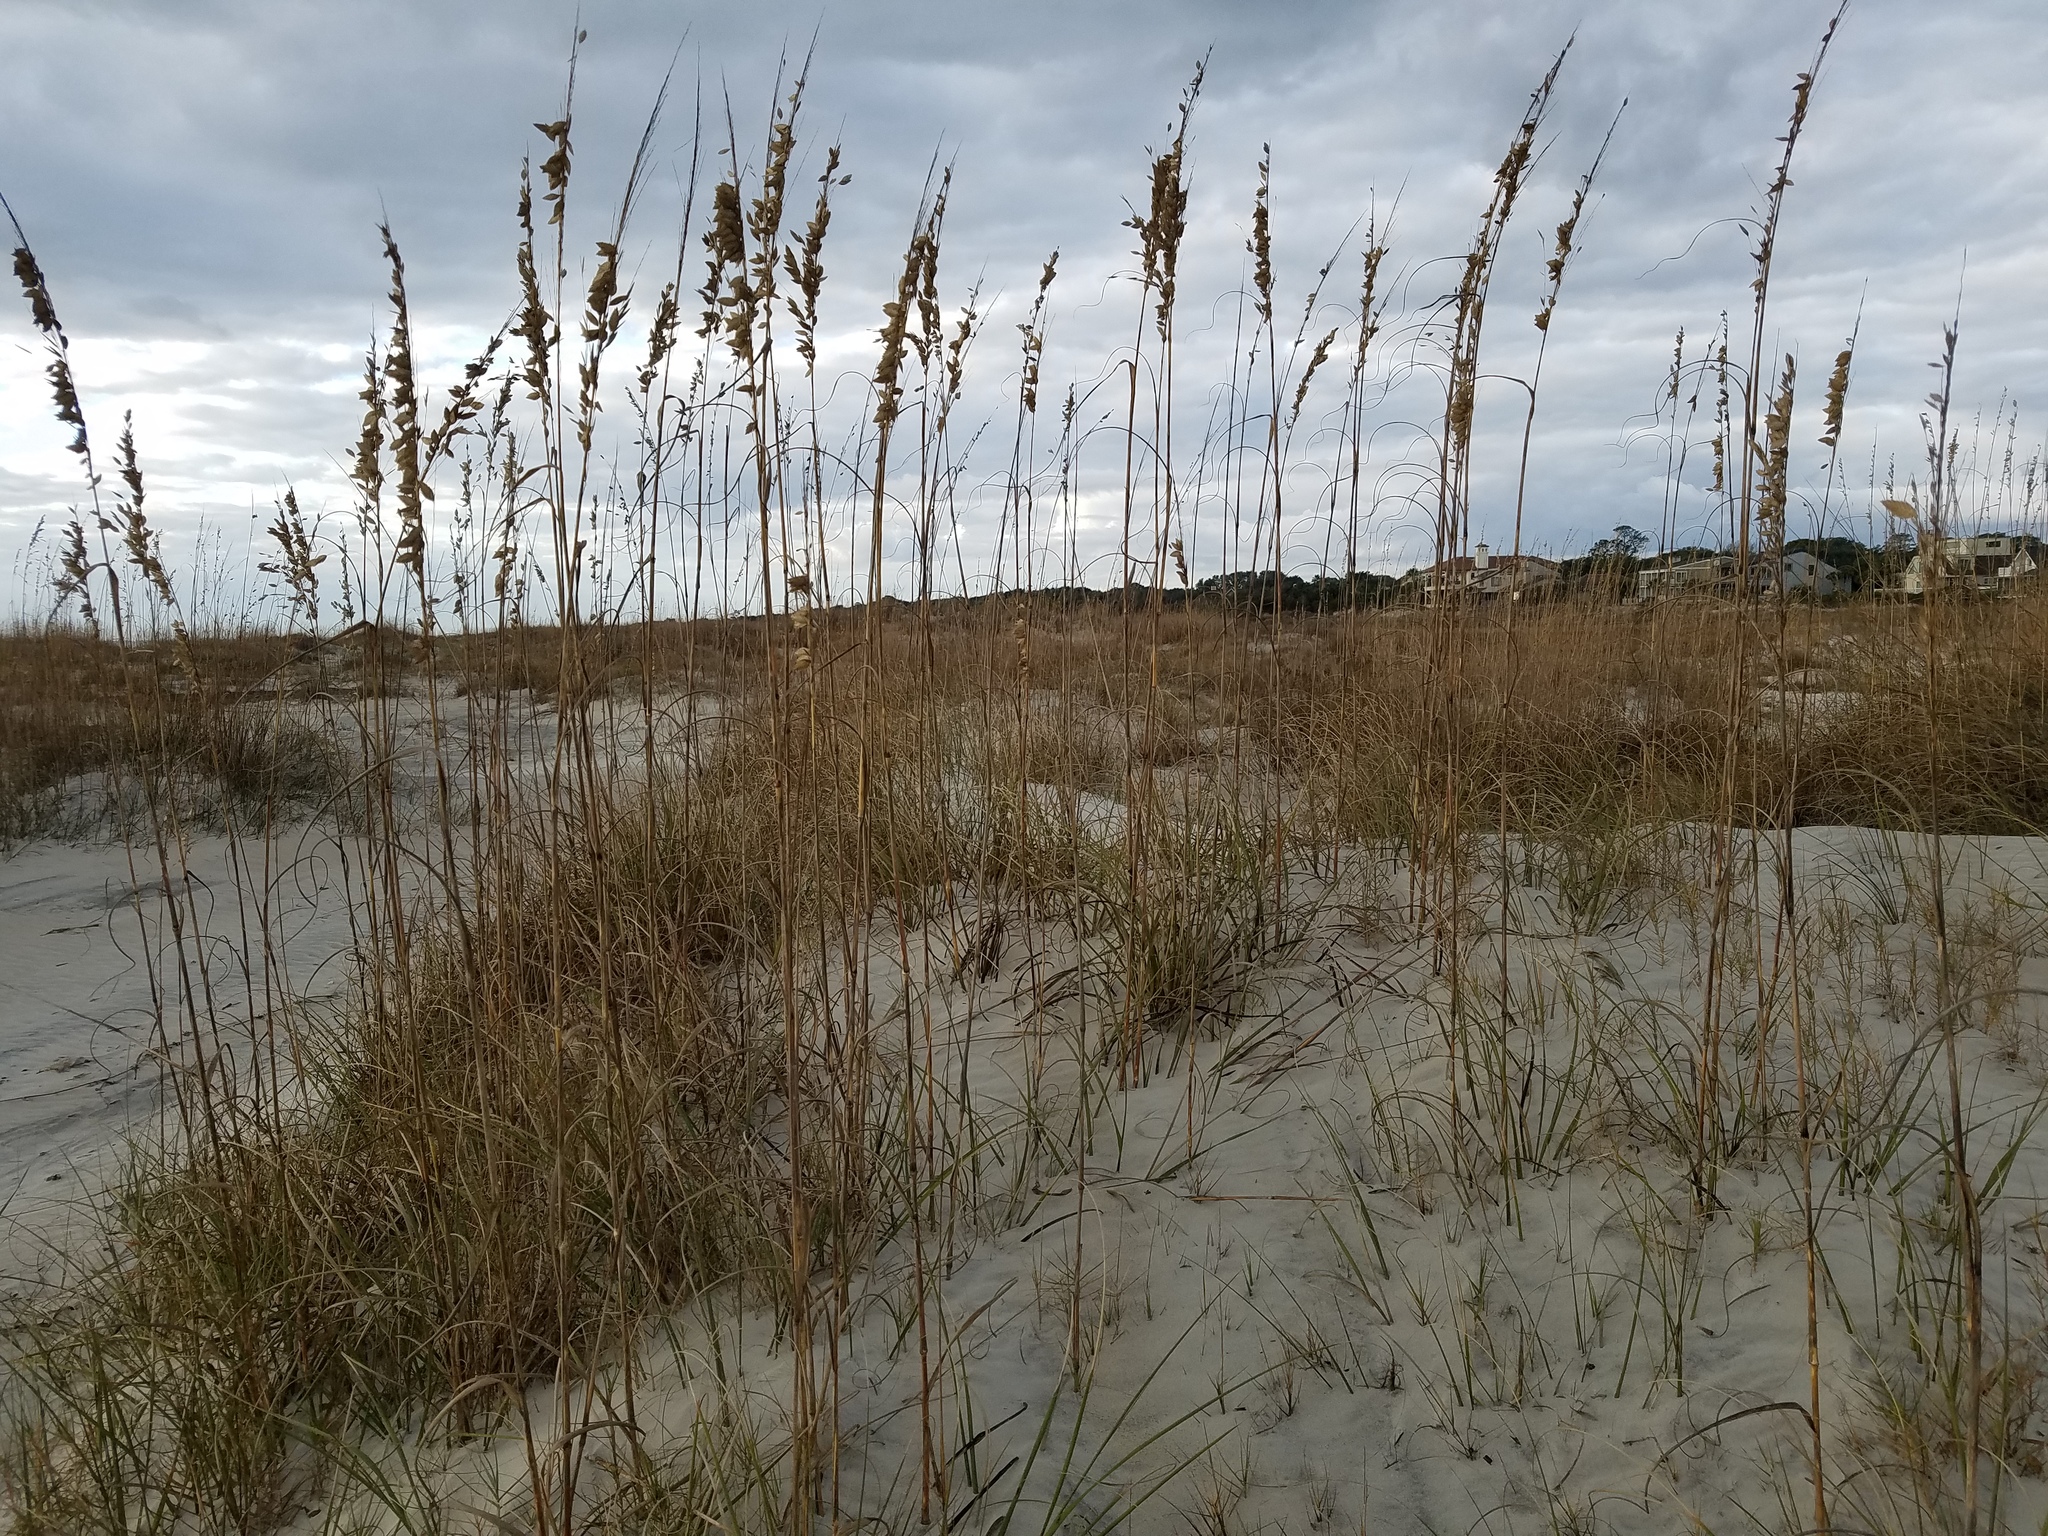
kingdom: Plantae
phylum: Tracheophyta
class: Liliopsida
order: Poales
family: Poaceae
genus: Uniola
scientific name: Uniola paniculata
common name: Seaside-oats
